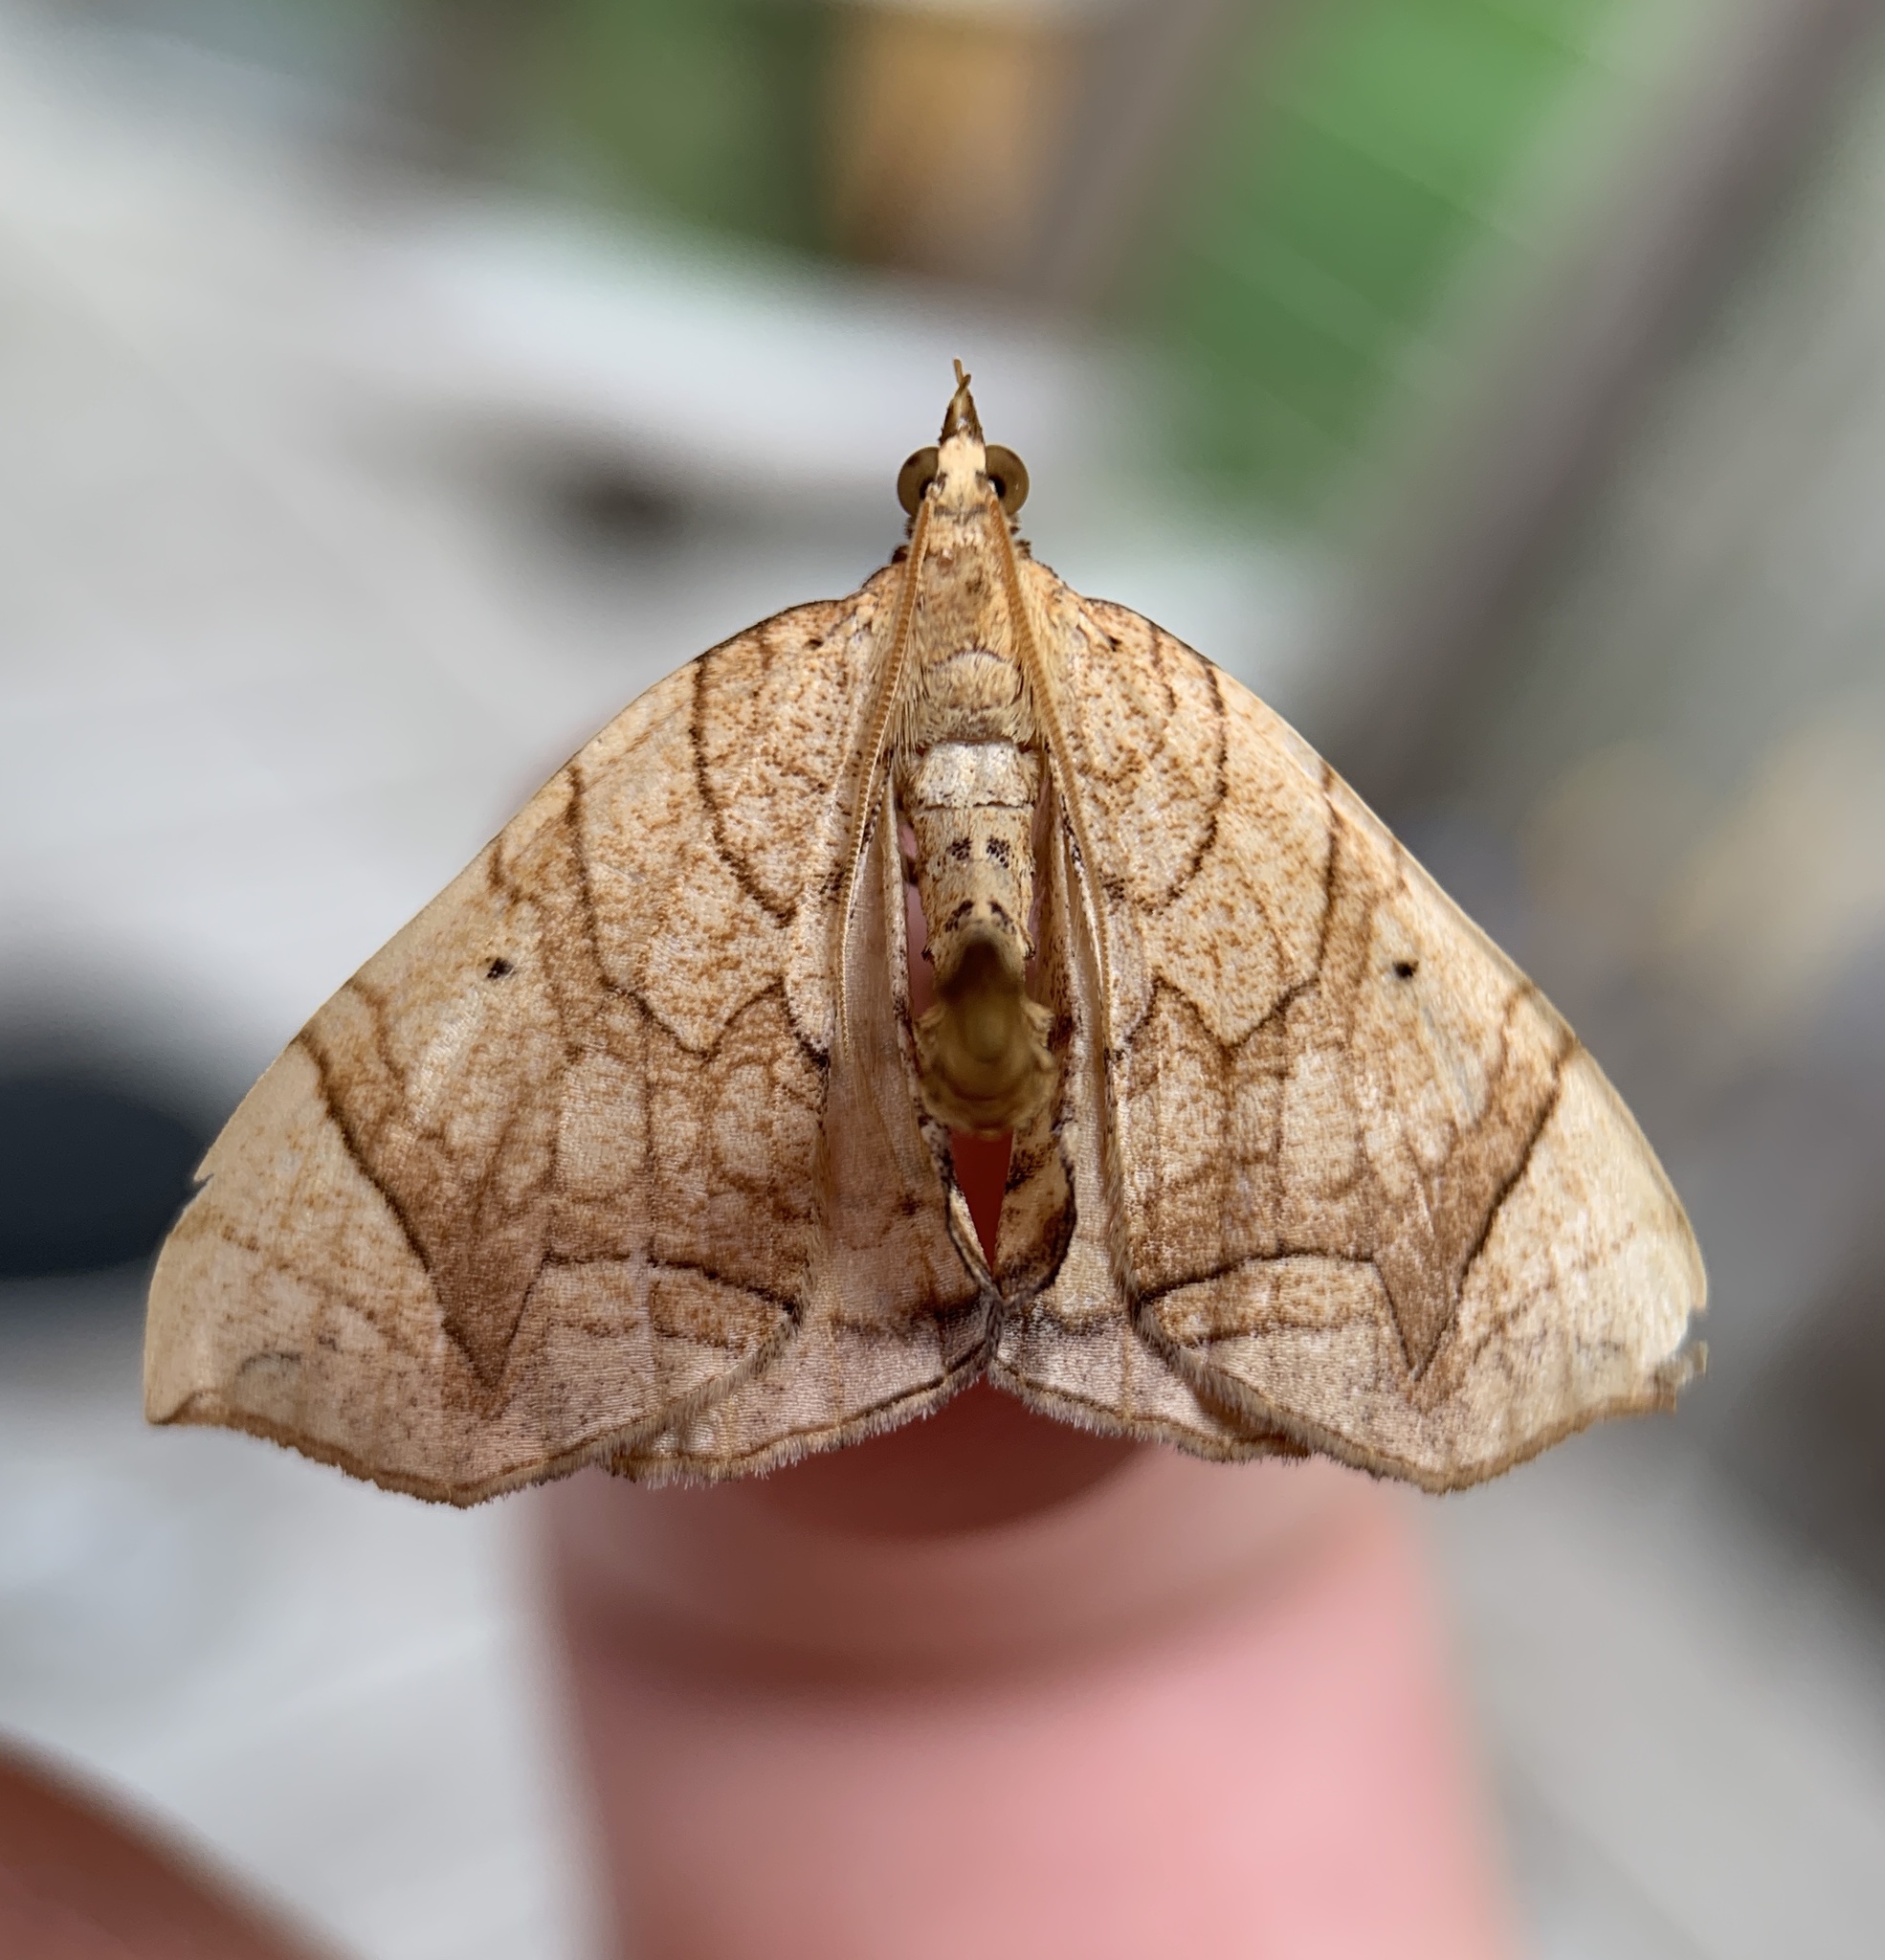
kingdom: Animalia
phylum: Arthropoda
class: Insecta
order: Lepidoptera
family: Geometridae
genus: Eulithis
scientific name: Eulithis gracilineata
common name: Greater grapevine looper moth
